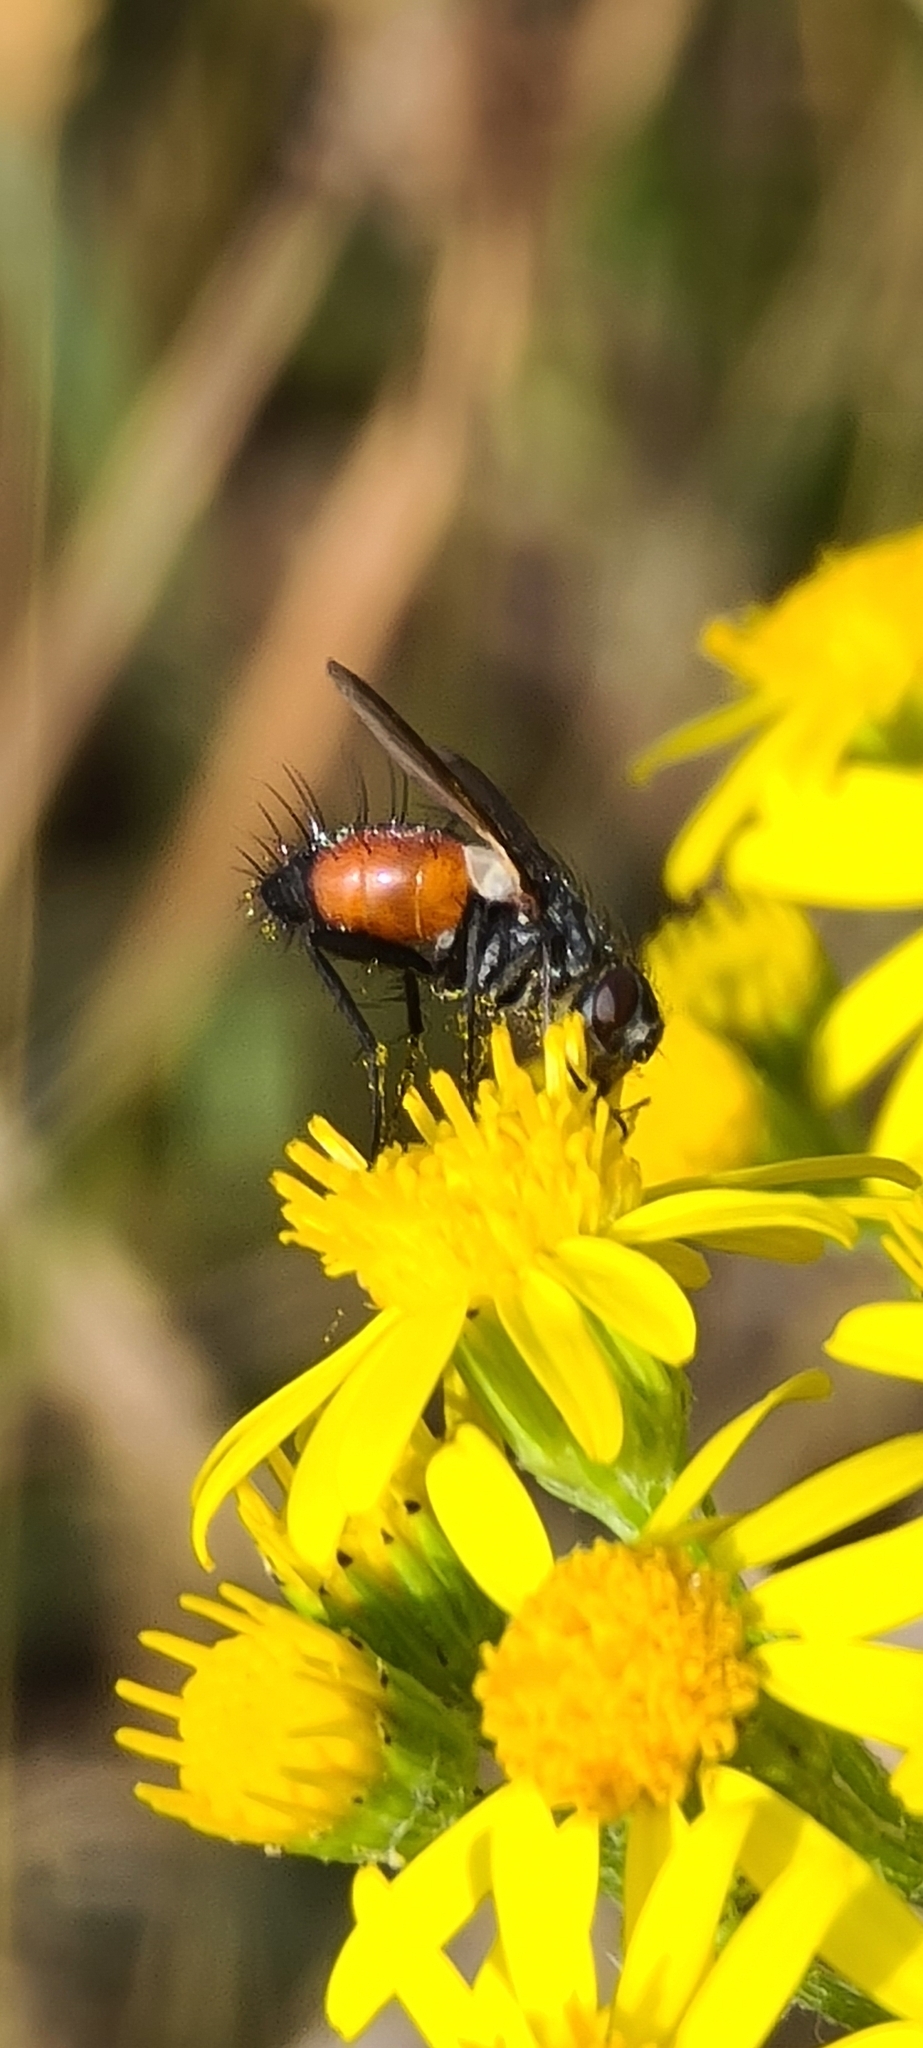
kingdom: Animalia
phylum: Arthropoda
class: Insecta
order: Diptera
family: Tachinidae
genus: Eriothrix
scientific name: Eriothrix rufomaculatus
